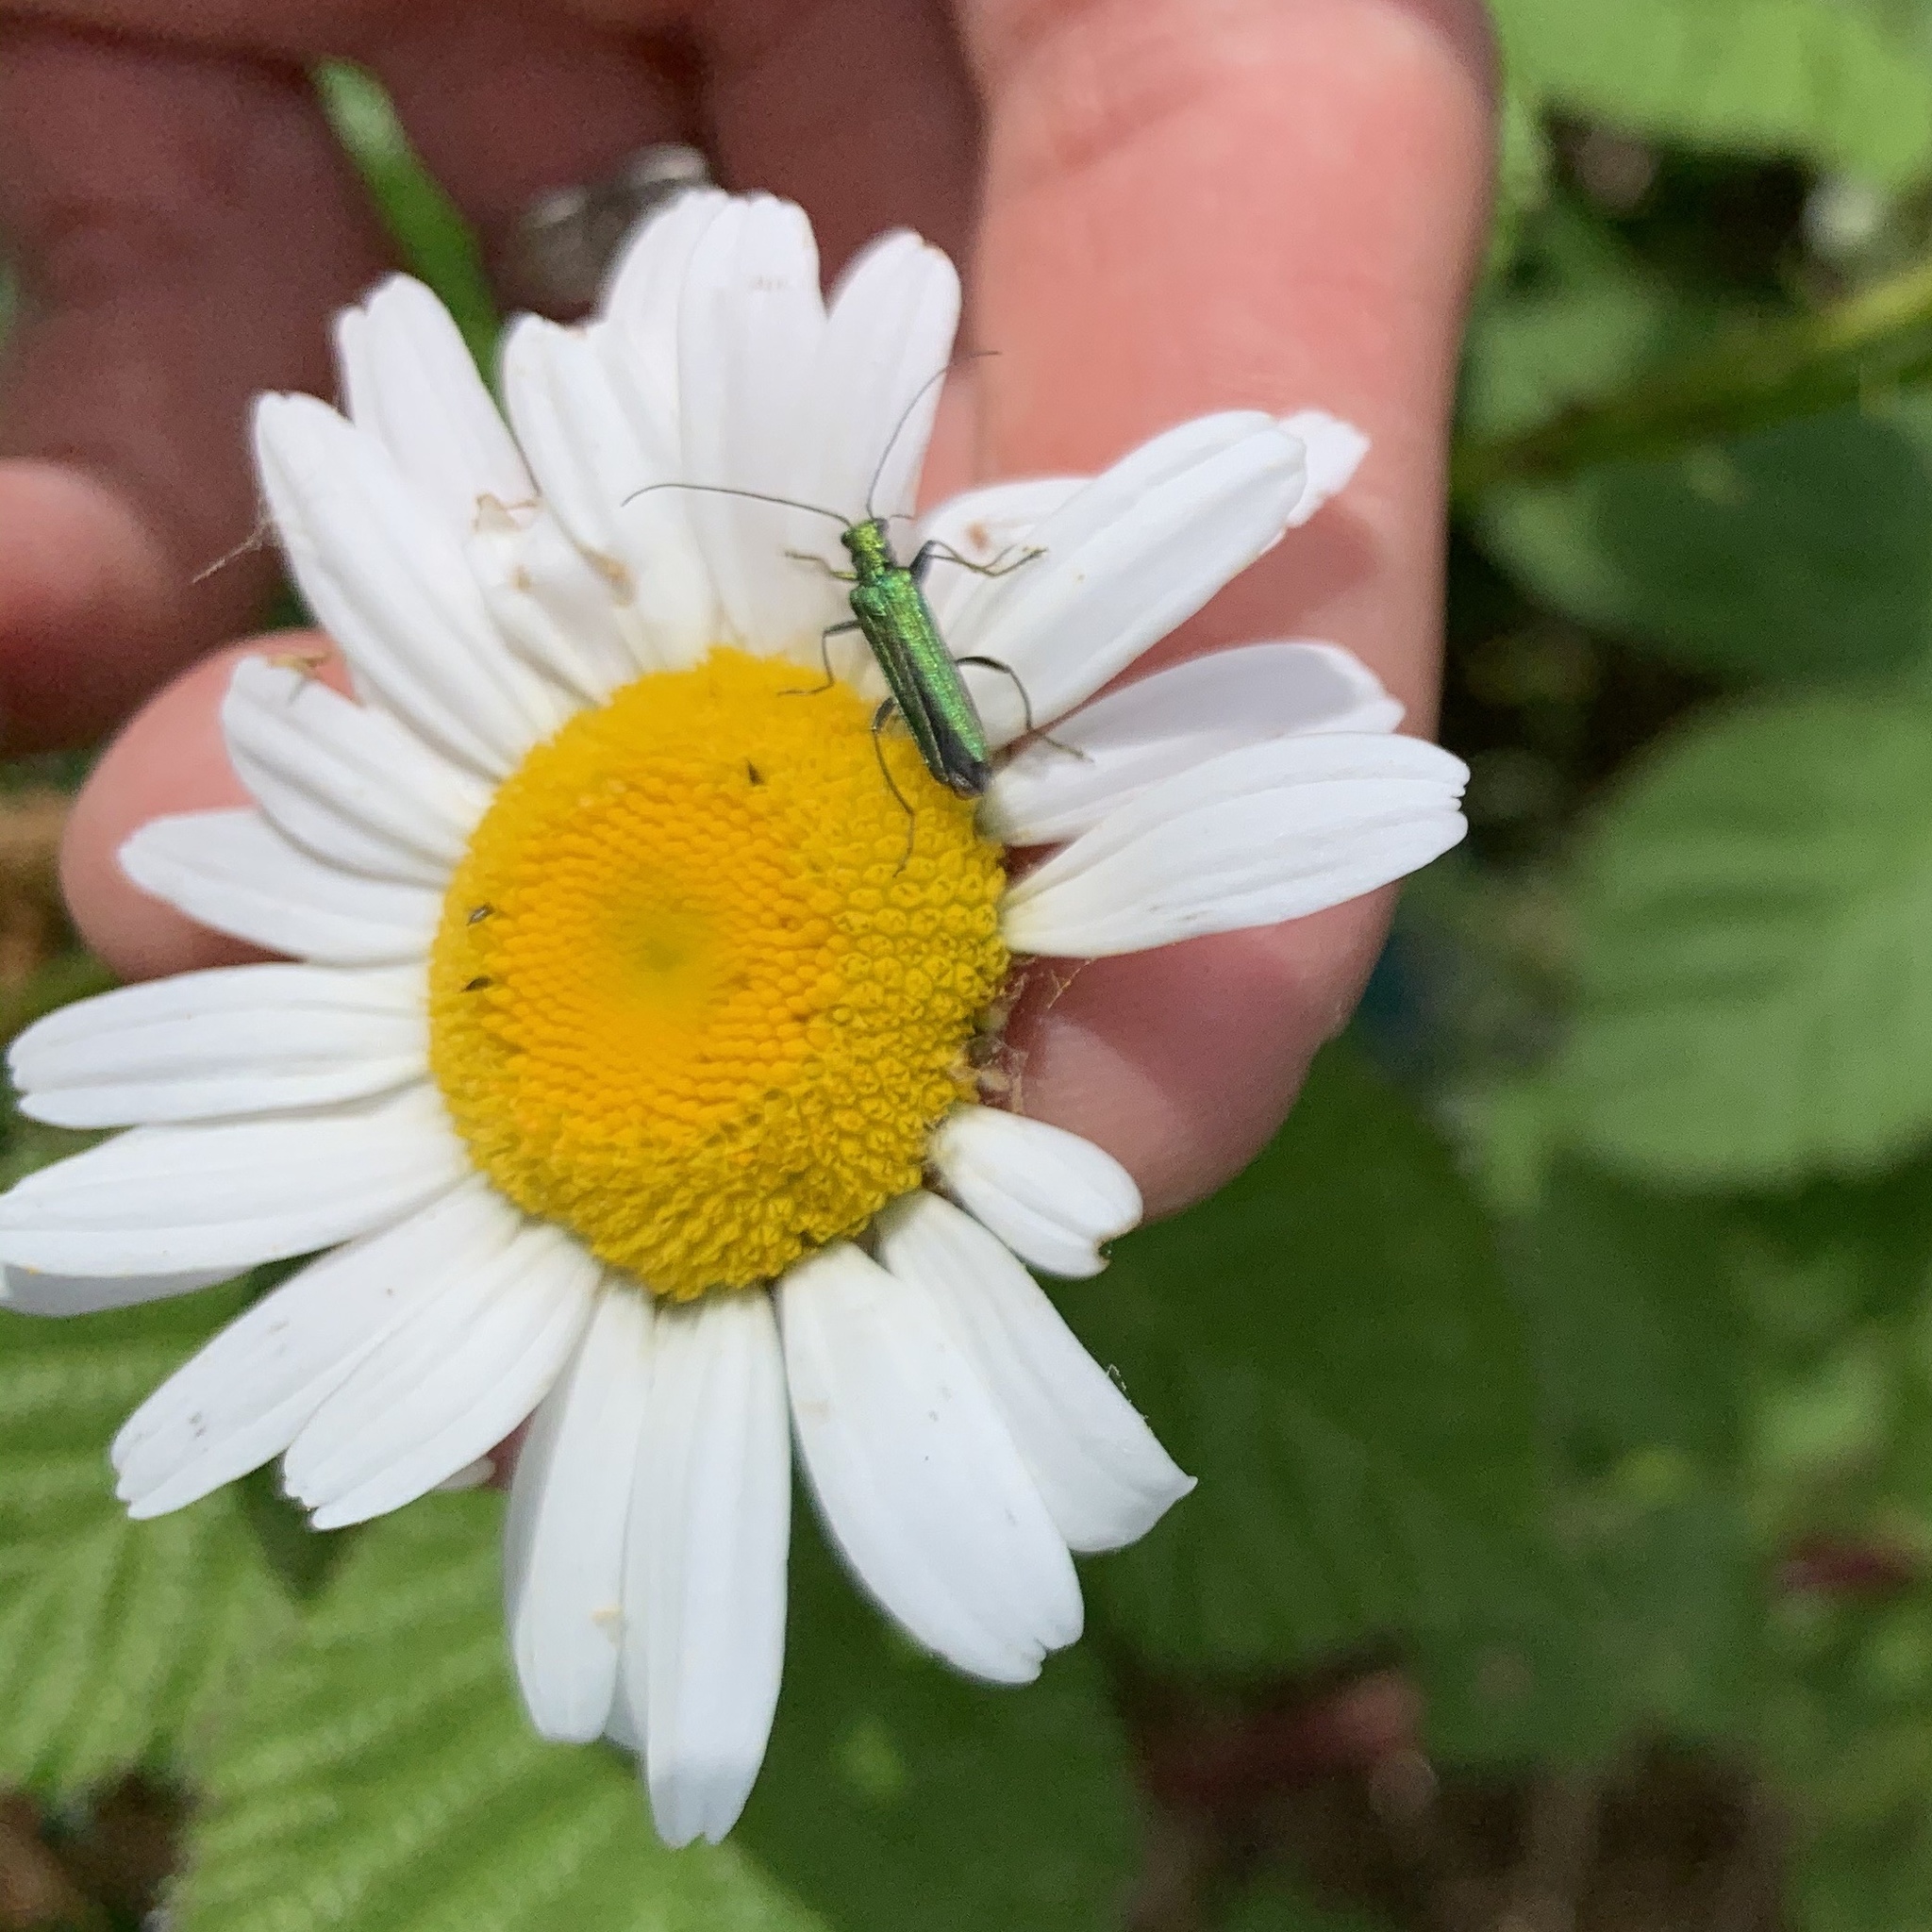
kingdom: Animalia
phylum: Arthropoda
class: Insecta
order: Coleoptera
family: Oedemeridae
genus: Oedemera
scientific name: Oedemera nobilis
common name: Swollen-thighed beetle
